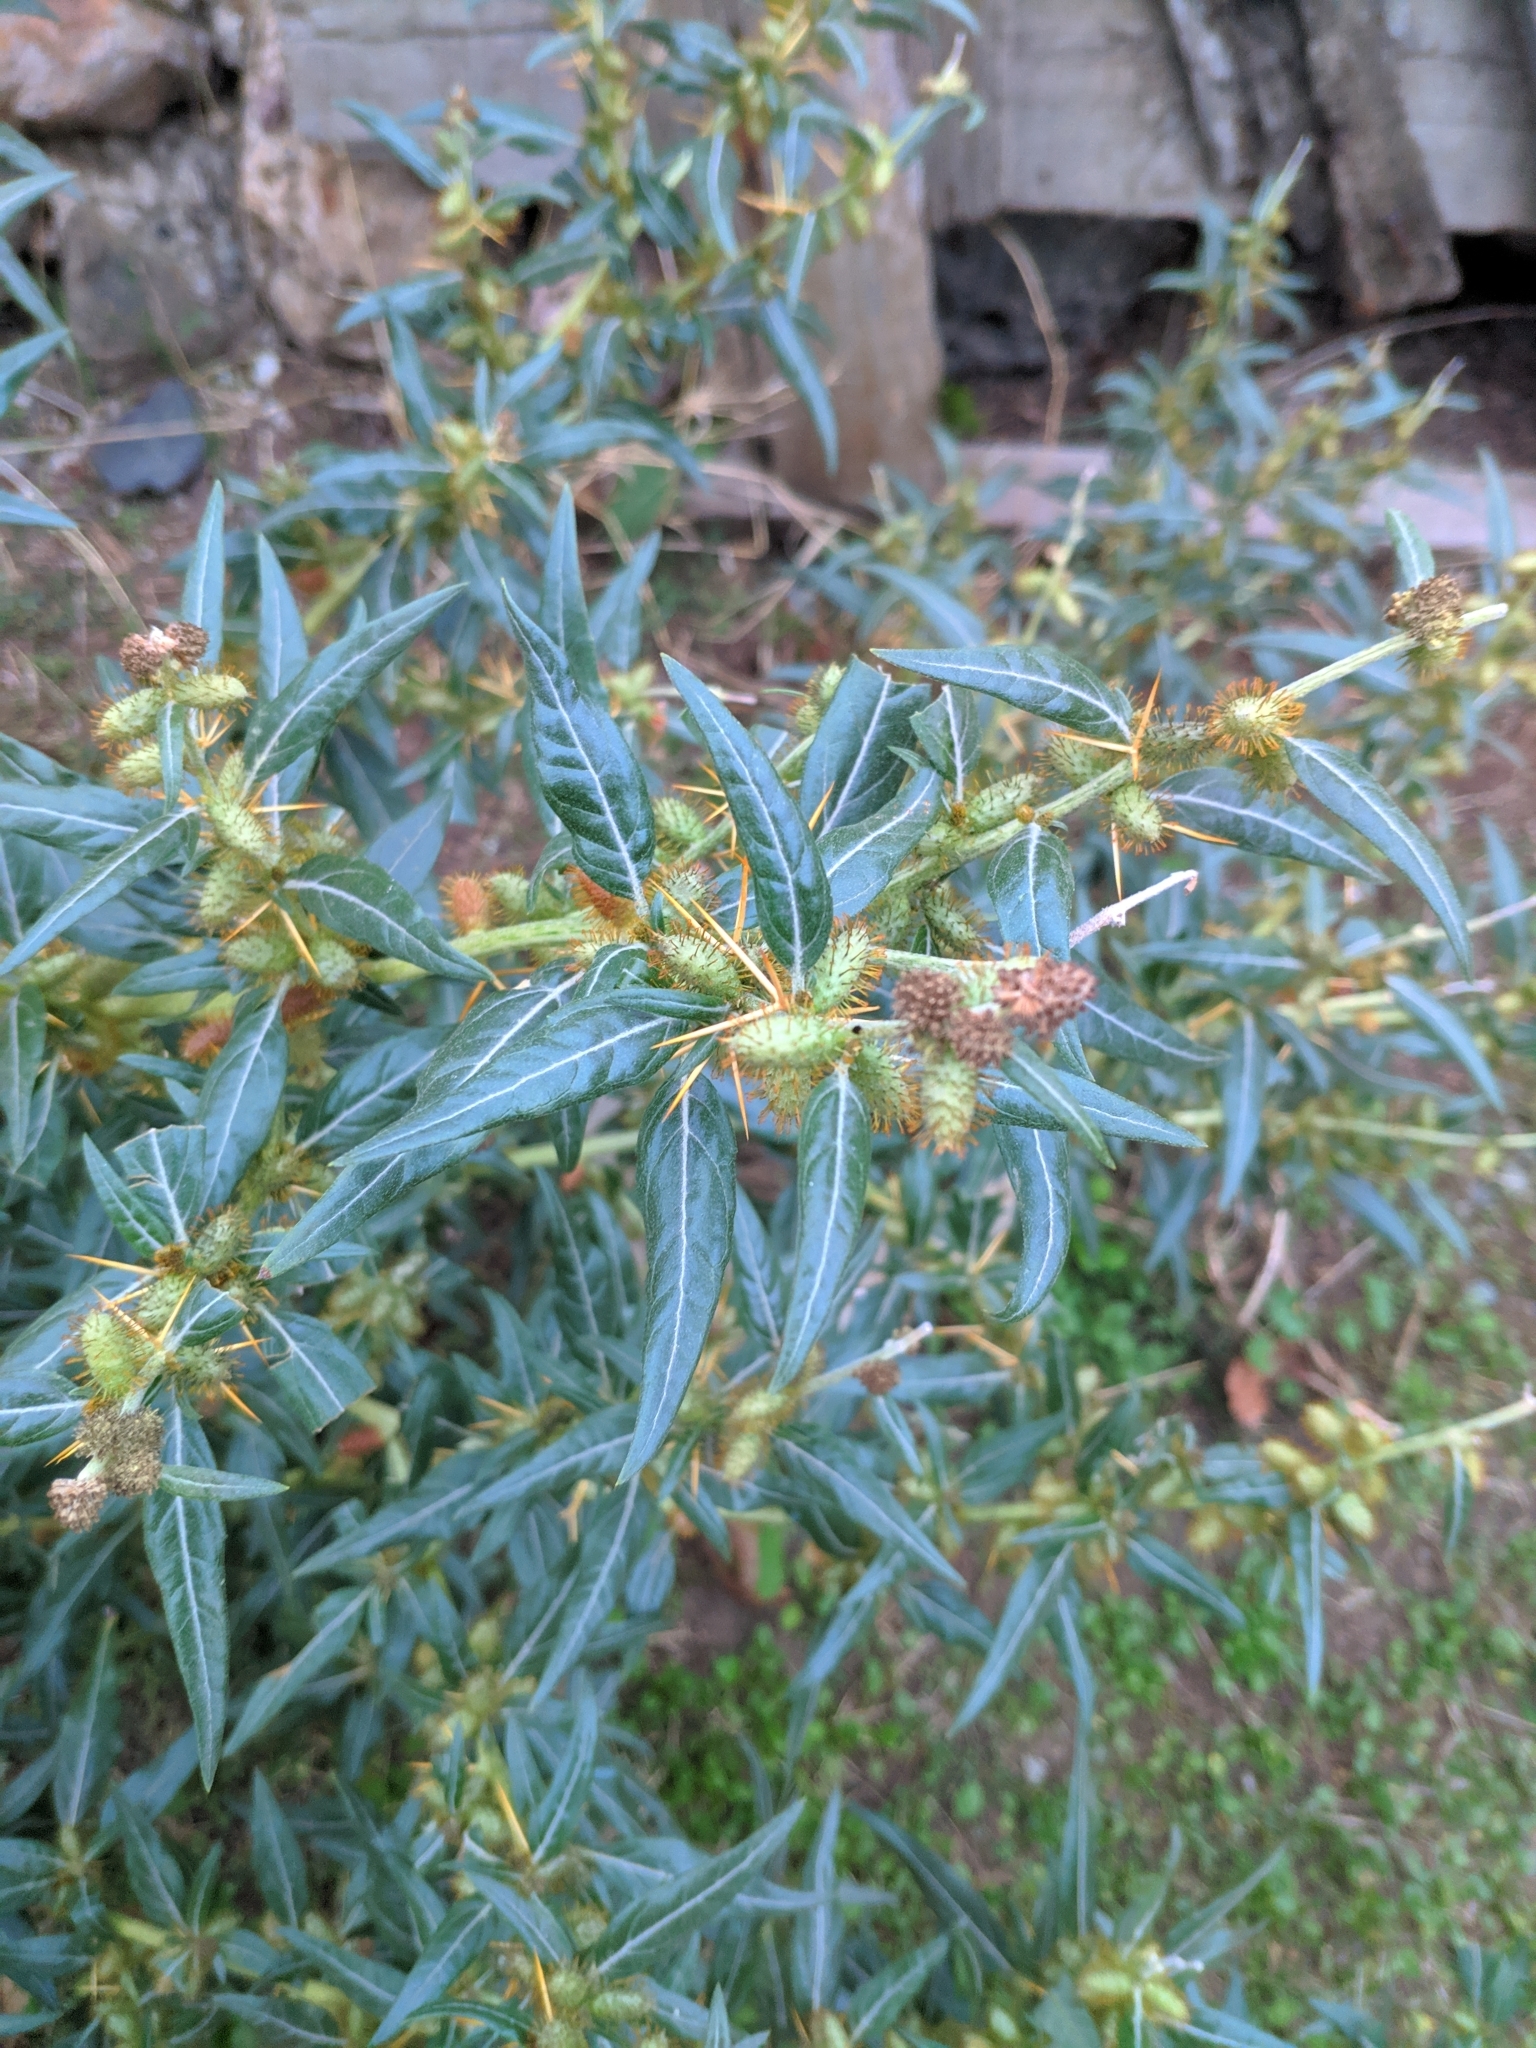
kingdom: Plantae
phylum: Tracheophyta
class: Magnoliopsida
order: Asterales
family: Asteraceae
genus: Xanthium
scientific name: Xanthium spinosum
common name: Spiny cocklebur
